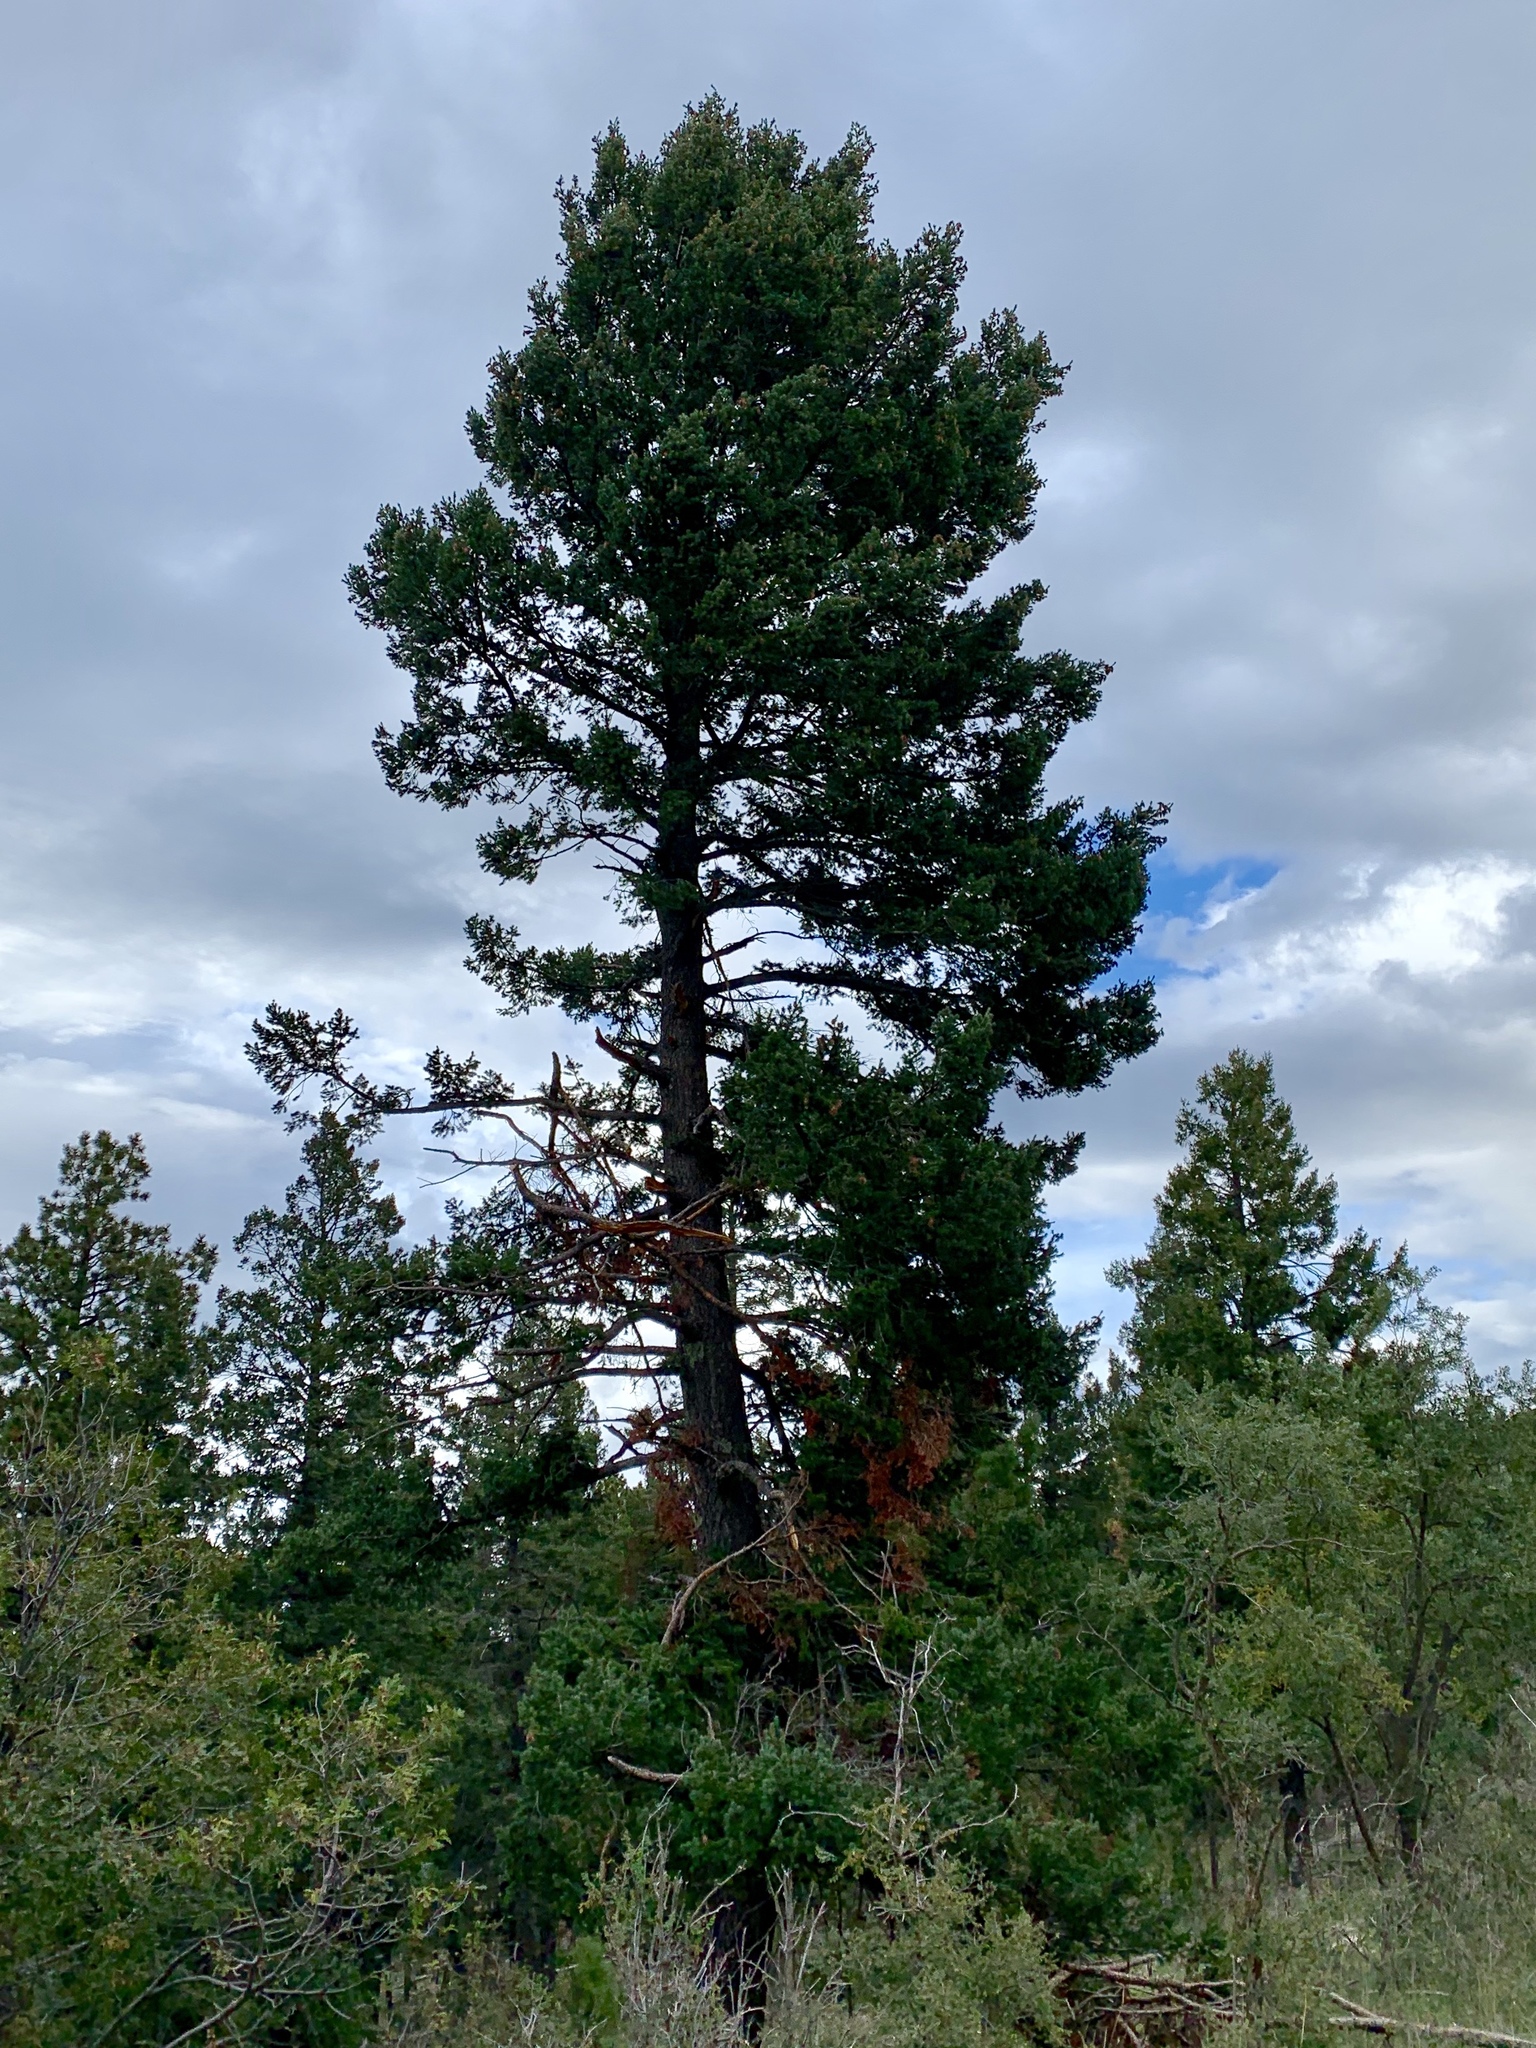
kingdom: Plantae
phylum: Tracheophyta
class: Pinopsida
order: Pinales
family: Pinaceae
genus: Pseudotsuga
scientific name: Pseudotsuga menziesii
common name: Douglas fir
